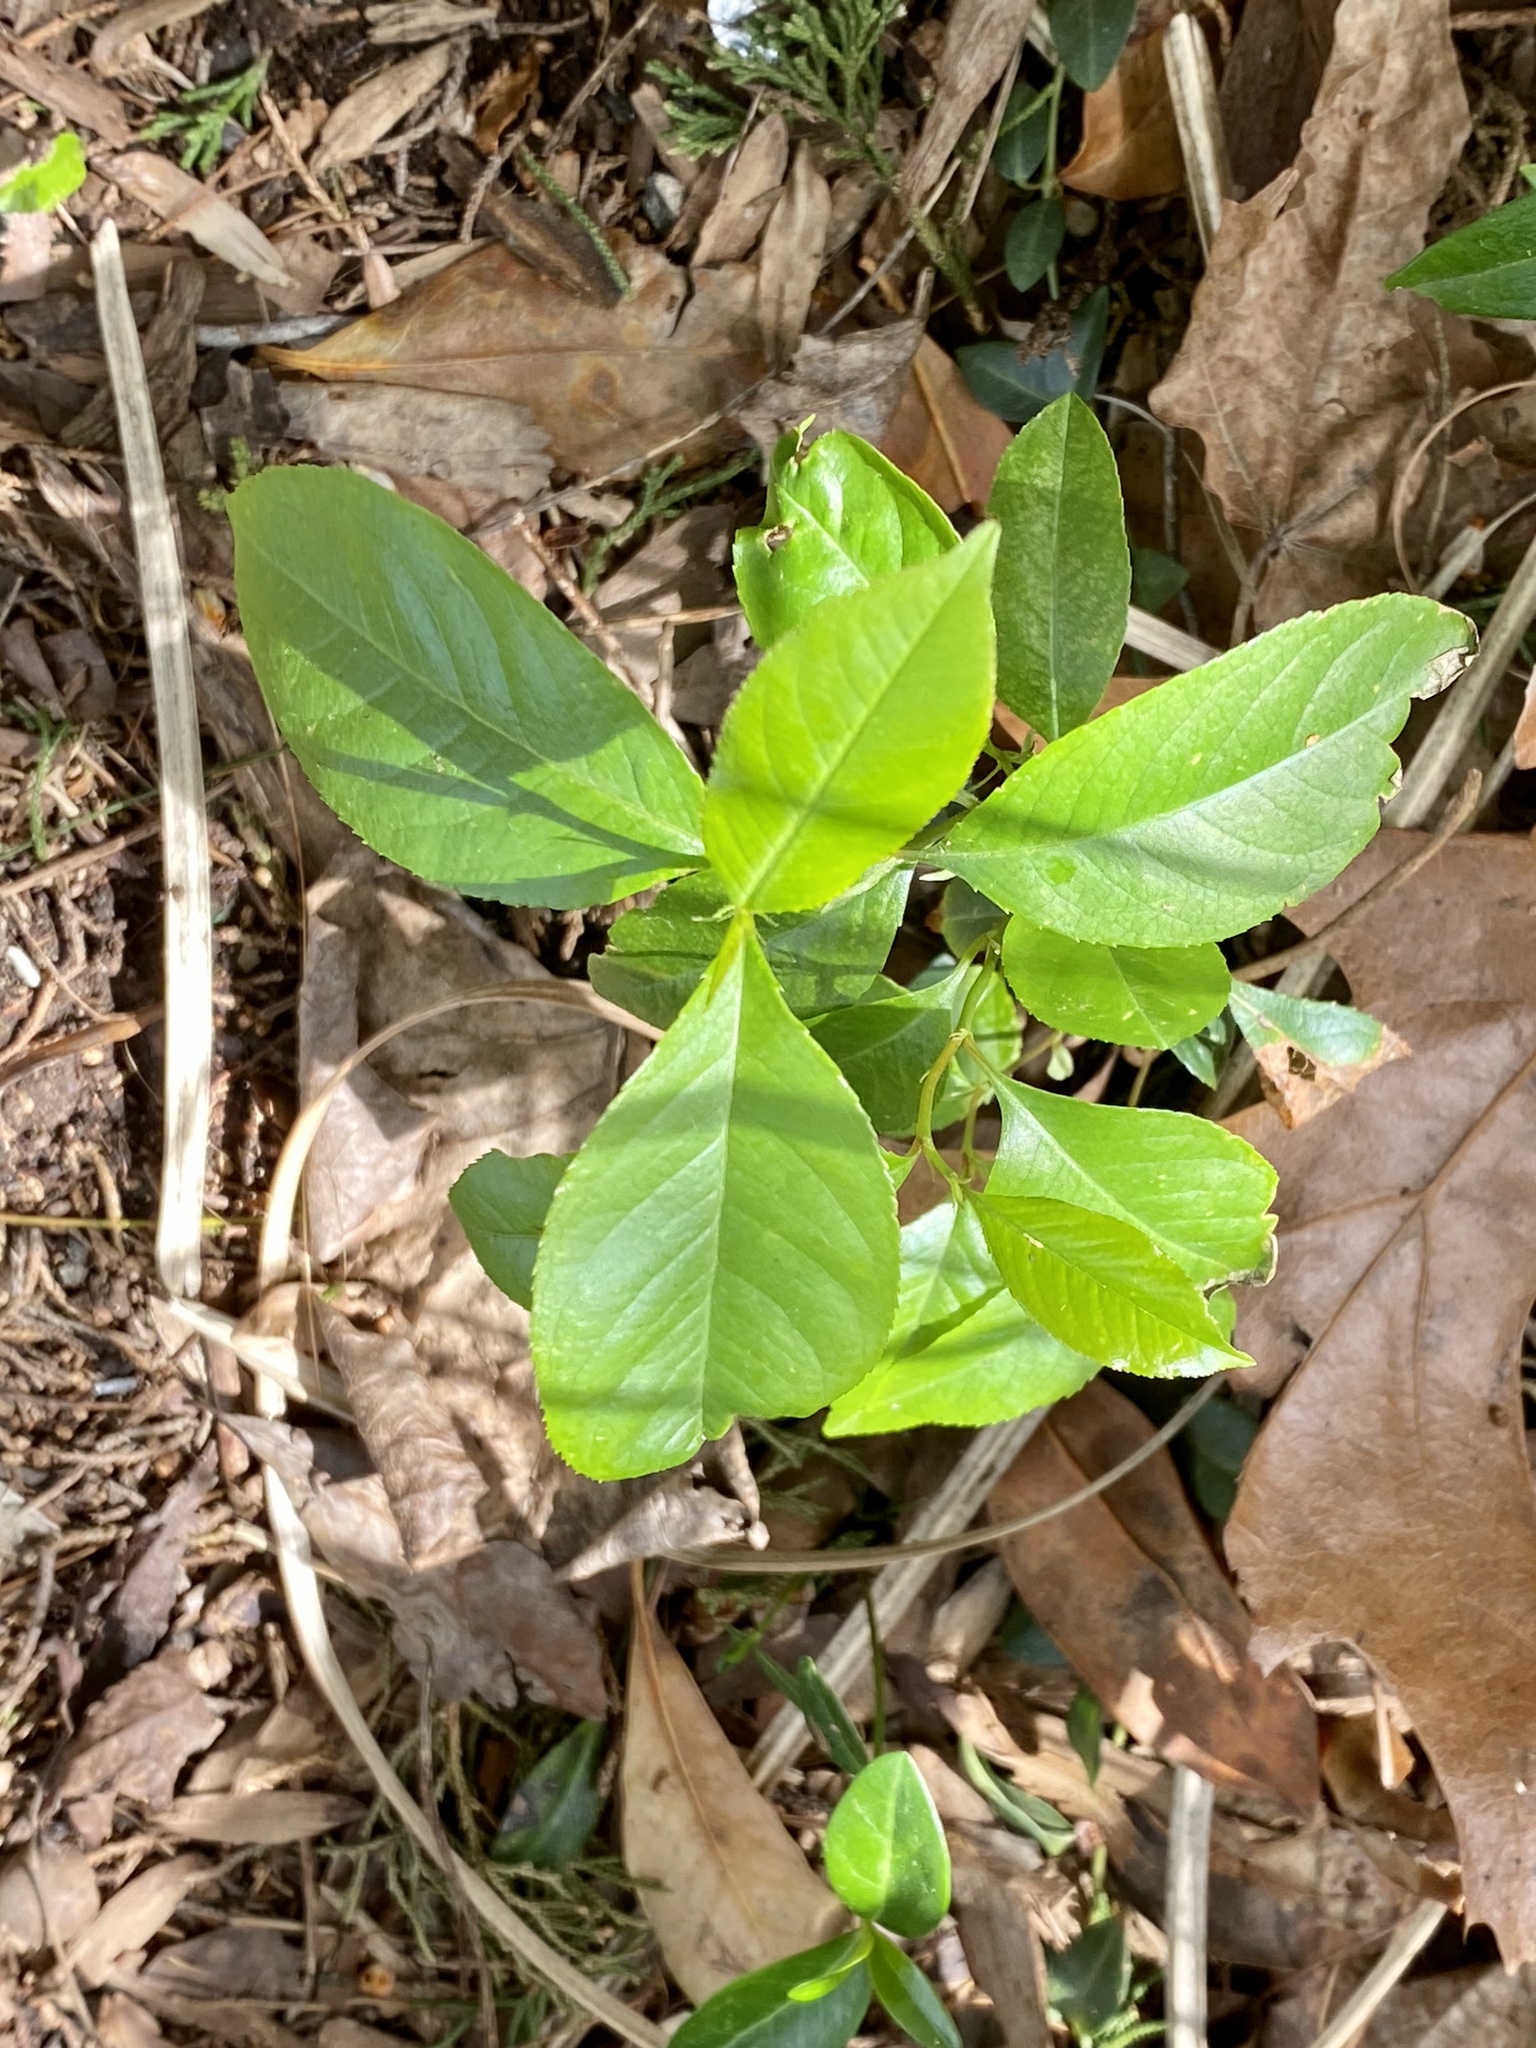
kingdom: Plantae
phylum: Tracheophyta
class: Magnoliopsida
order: Rosales
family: Rosaceae
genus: Prunus
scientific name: Prunus serotina
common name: Black cherry
